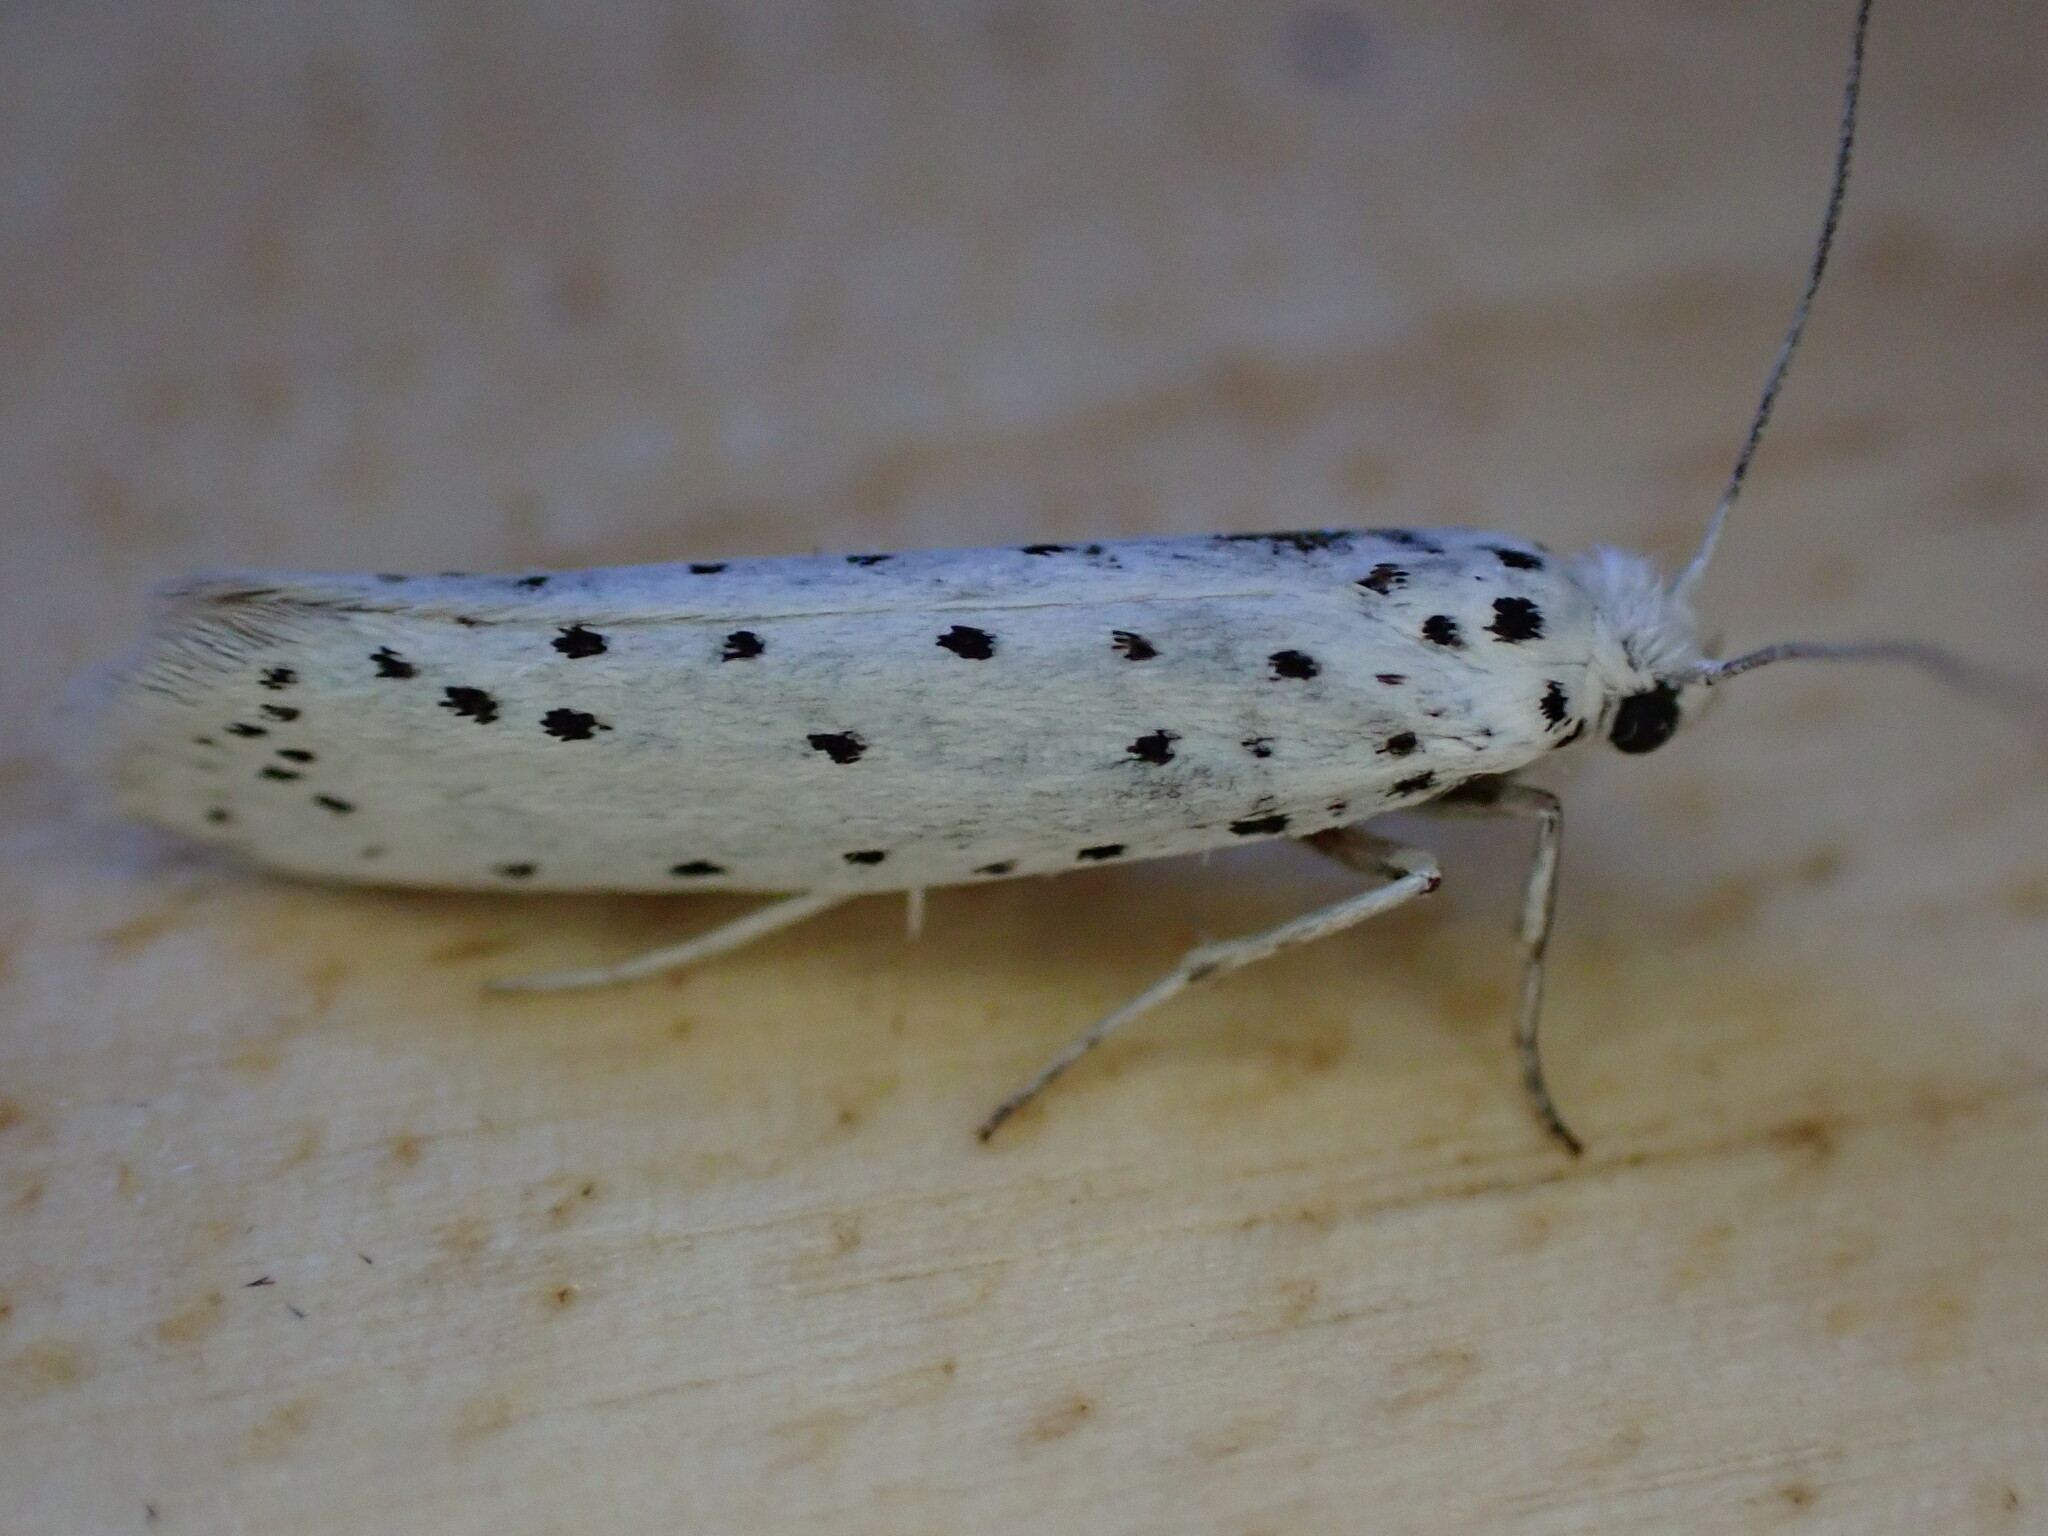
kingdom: Animalia
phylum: Arthropoda
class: Insecta
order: Lepidoptera
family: Yponomeutidae
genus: Yponomeuta
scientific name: Yponomeuta
